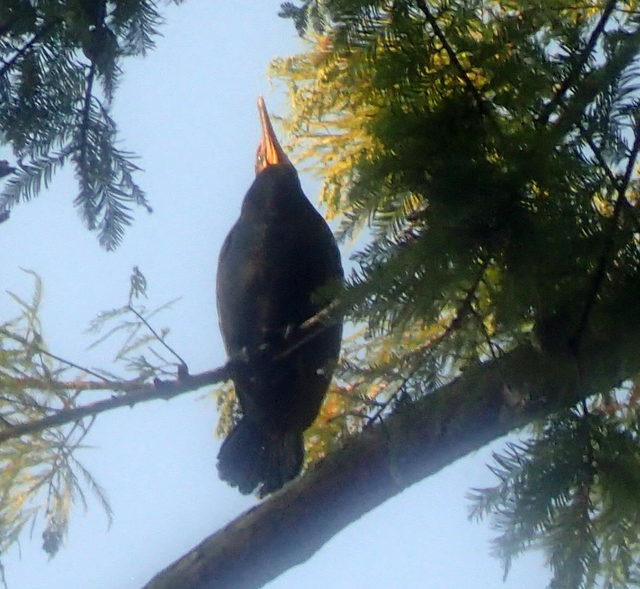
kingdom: Animalia
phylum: Chordata
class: Aves
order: Suliformes
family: Phalacrocoracidae
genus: Phalacrocorax
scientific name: Phalacrocorax auritus
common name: Double-crested cormorant
